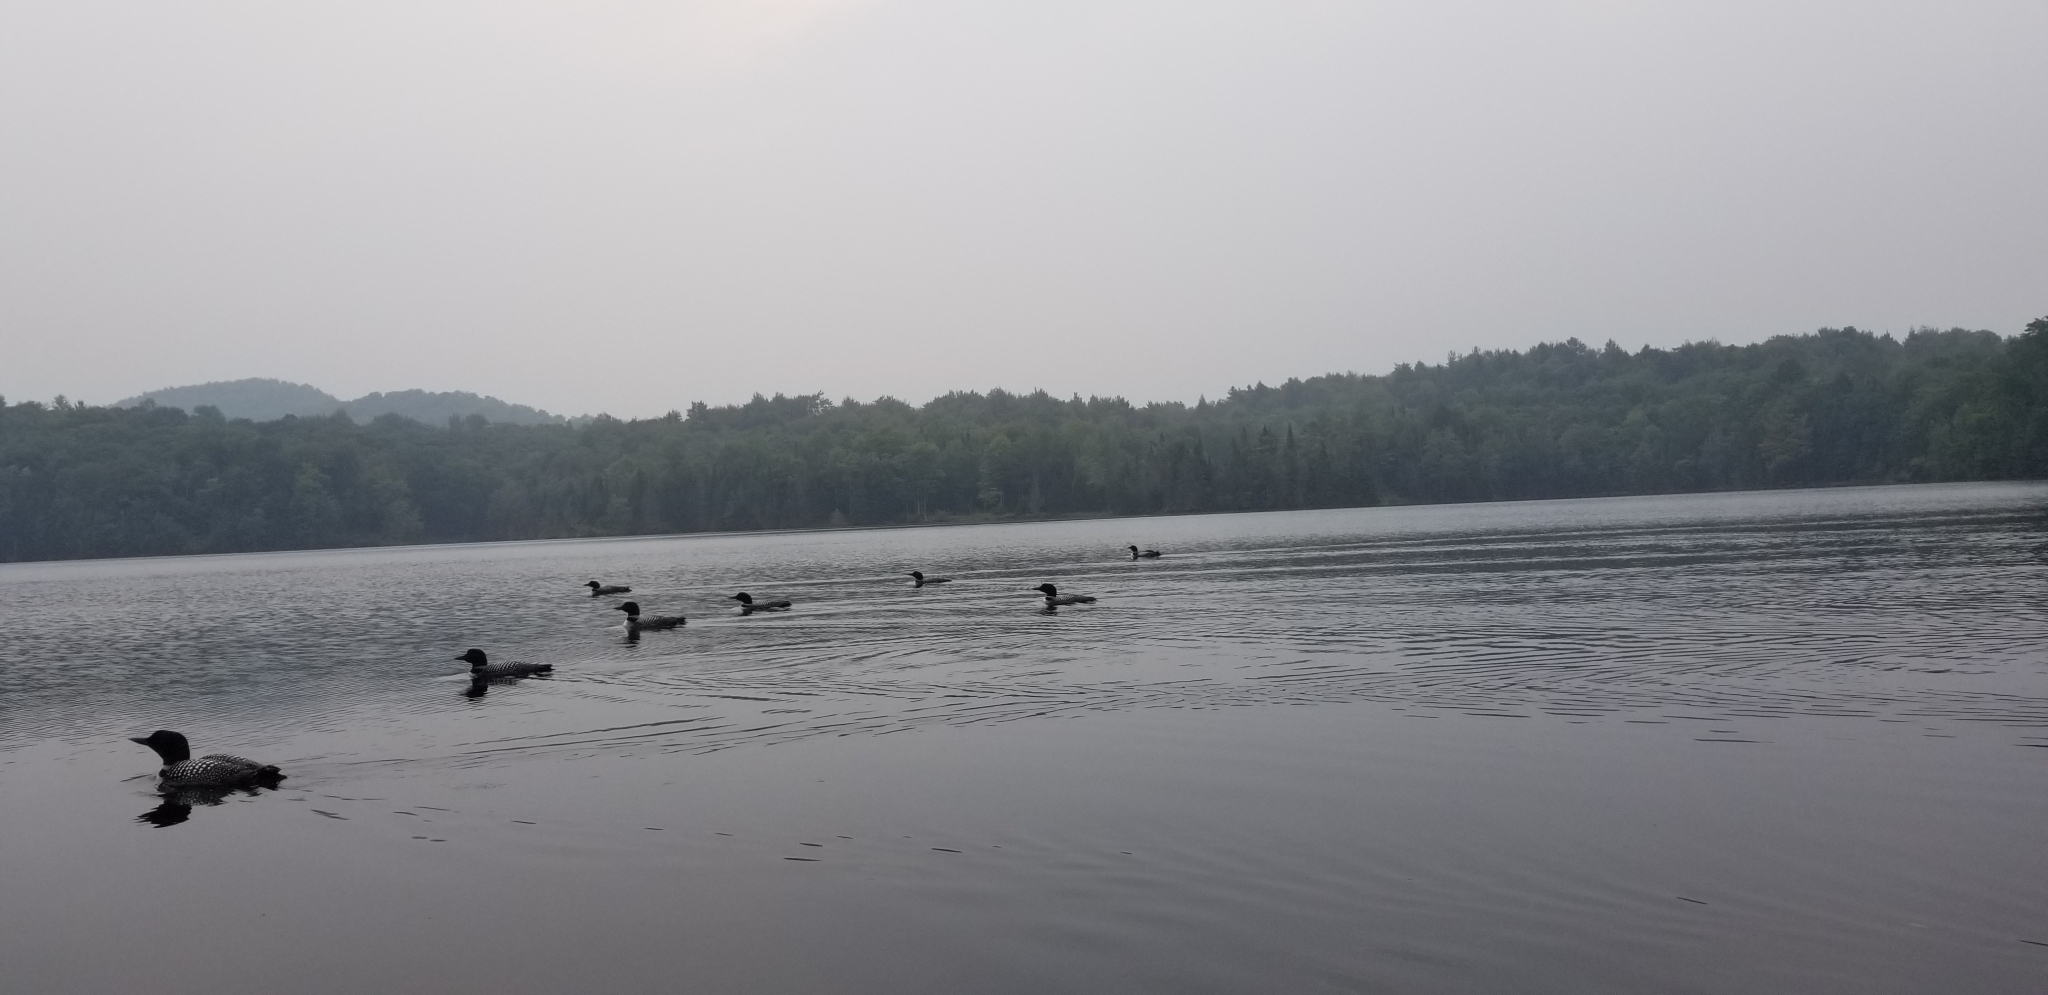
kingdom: Animalia
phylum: Chordata
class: Aves
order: Gaviiformes
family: Gaviidae
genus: Gavia
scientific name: Gavia immer
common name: Common loon
